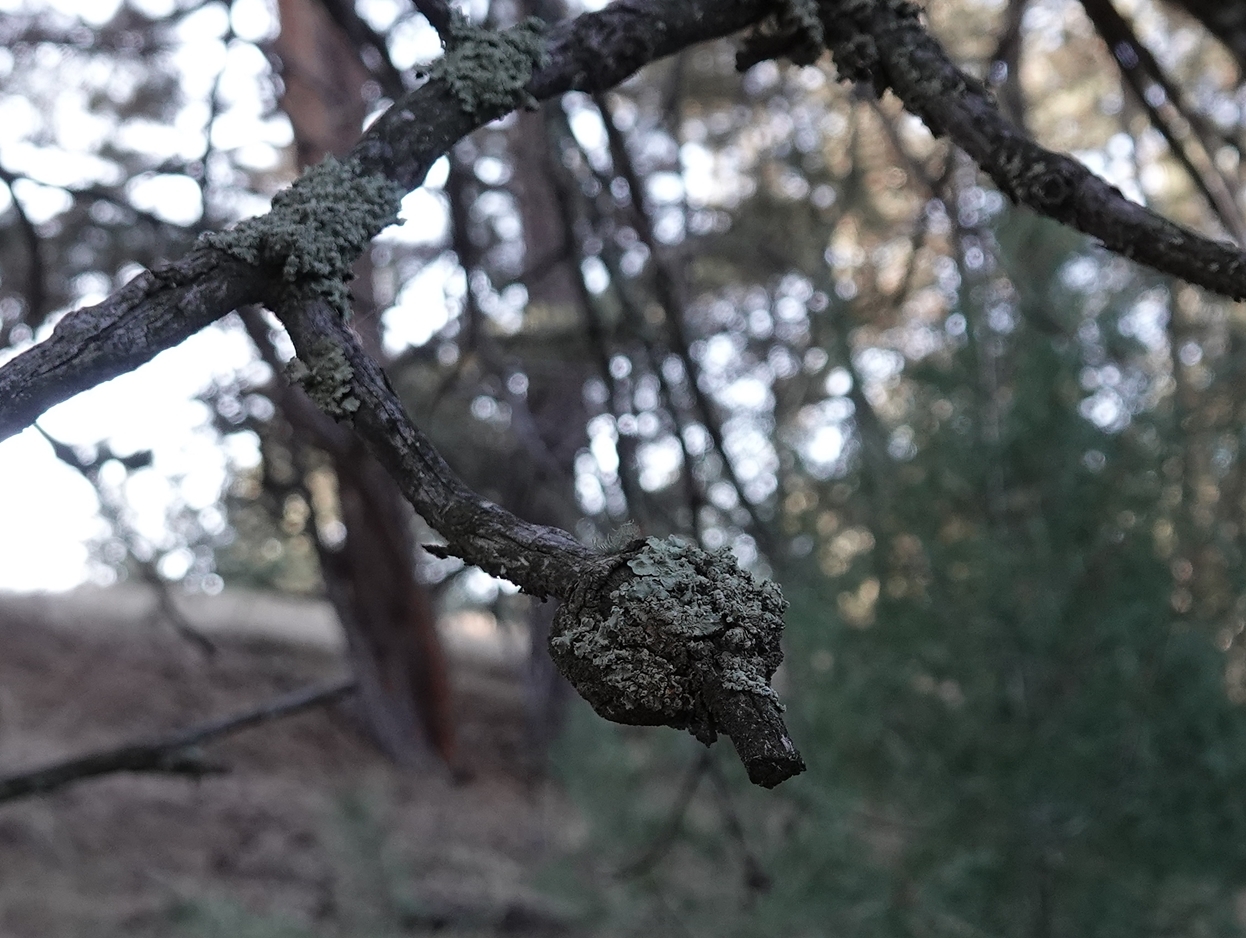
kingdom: Fungi
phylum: Basidiomycota
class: Pucciniomycetes
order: Pucciniales
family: Cronartiaceae
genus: Cronartium
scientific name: Cronartium harknessii
